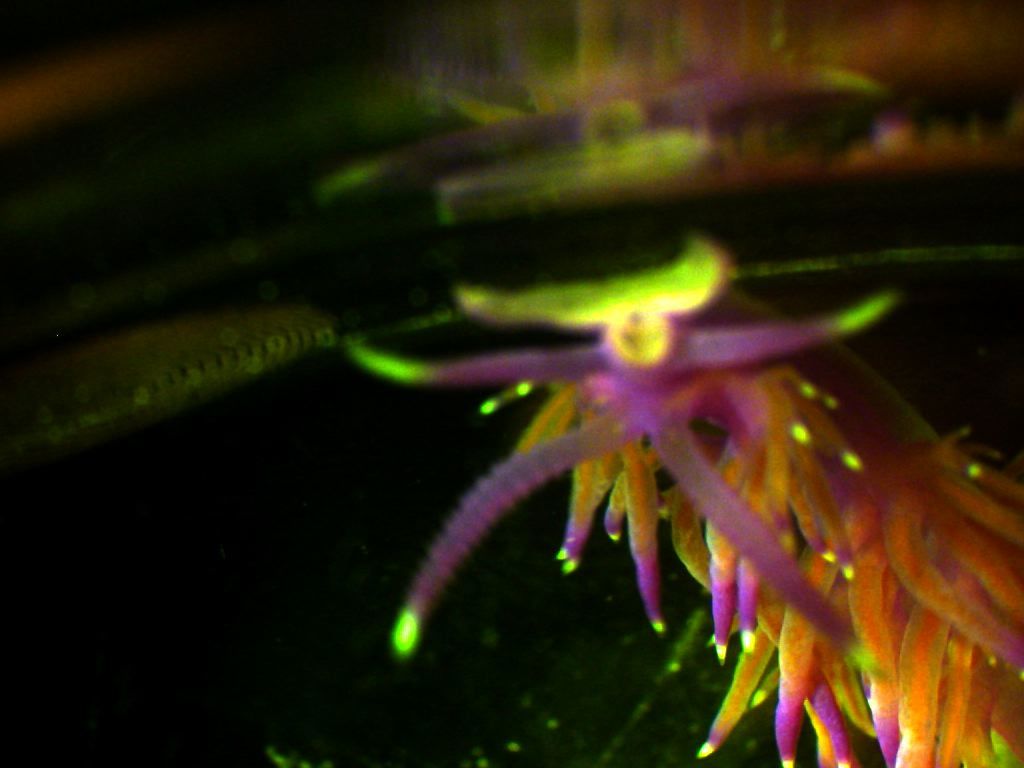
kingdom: Animalia
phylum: Mollusca
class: Gastropoda
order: Nudibranchia
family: Flabellinidae
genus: Flabellina
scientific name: Flabellina affinis
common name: Mediterranean violet aeolid
